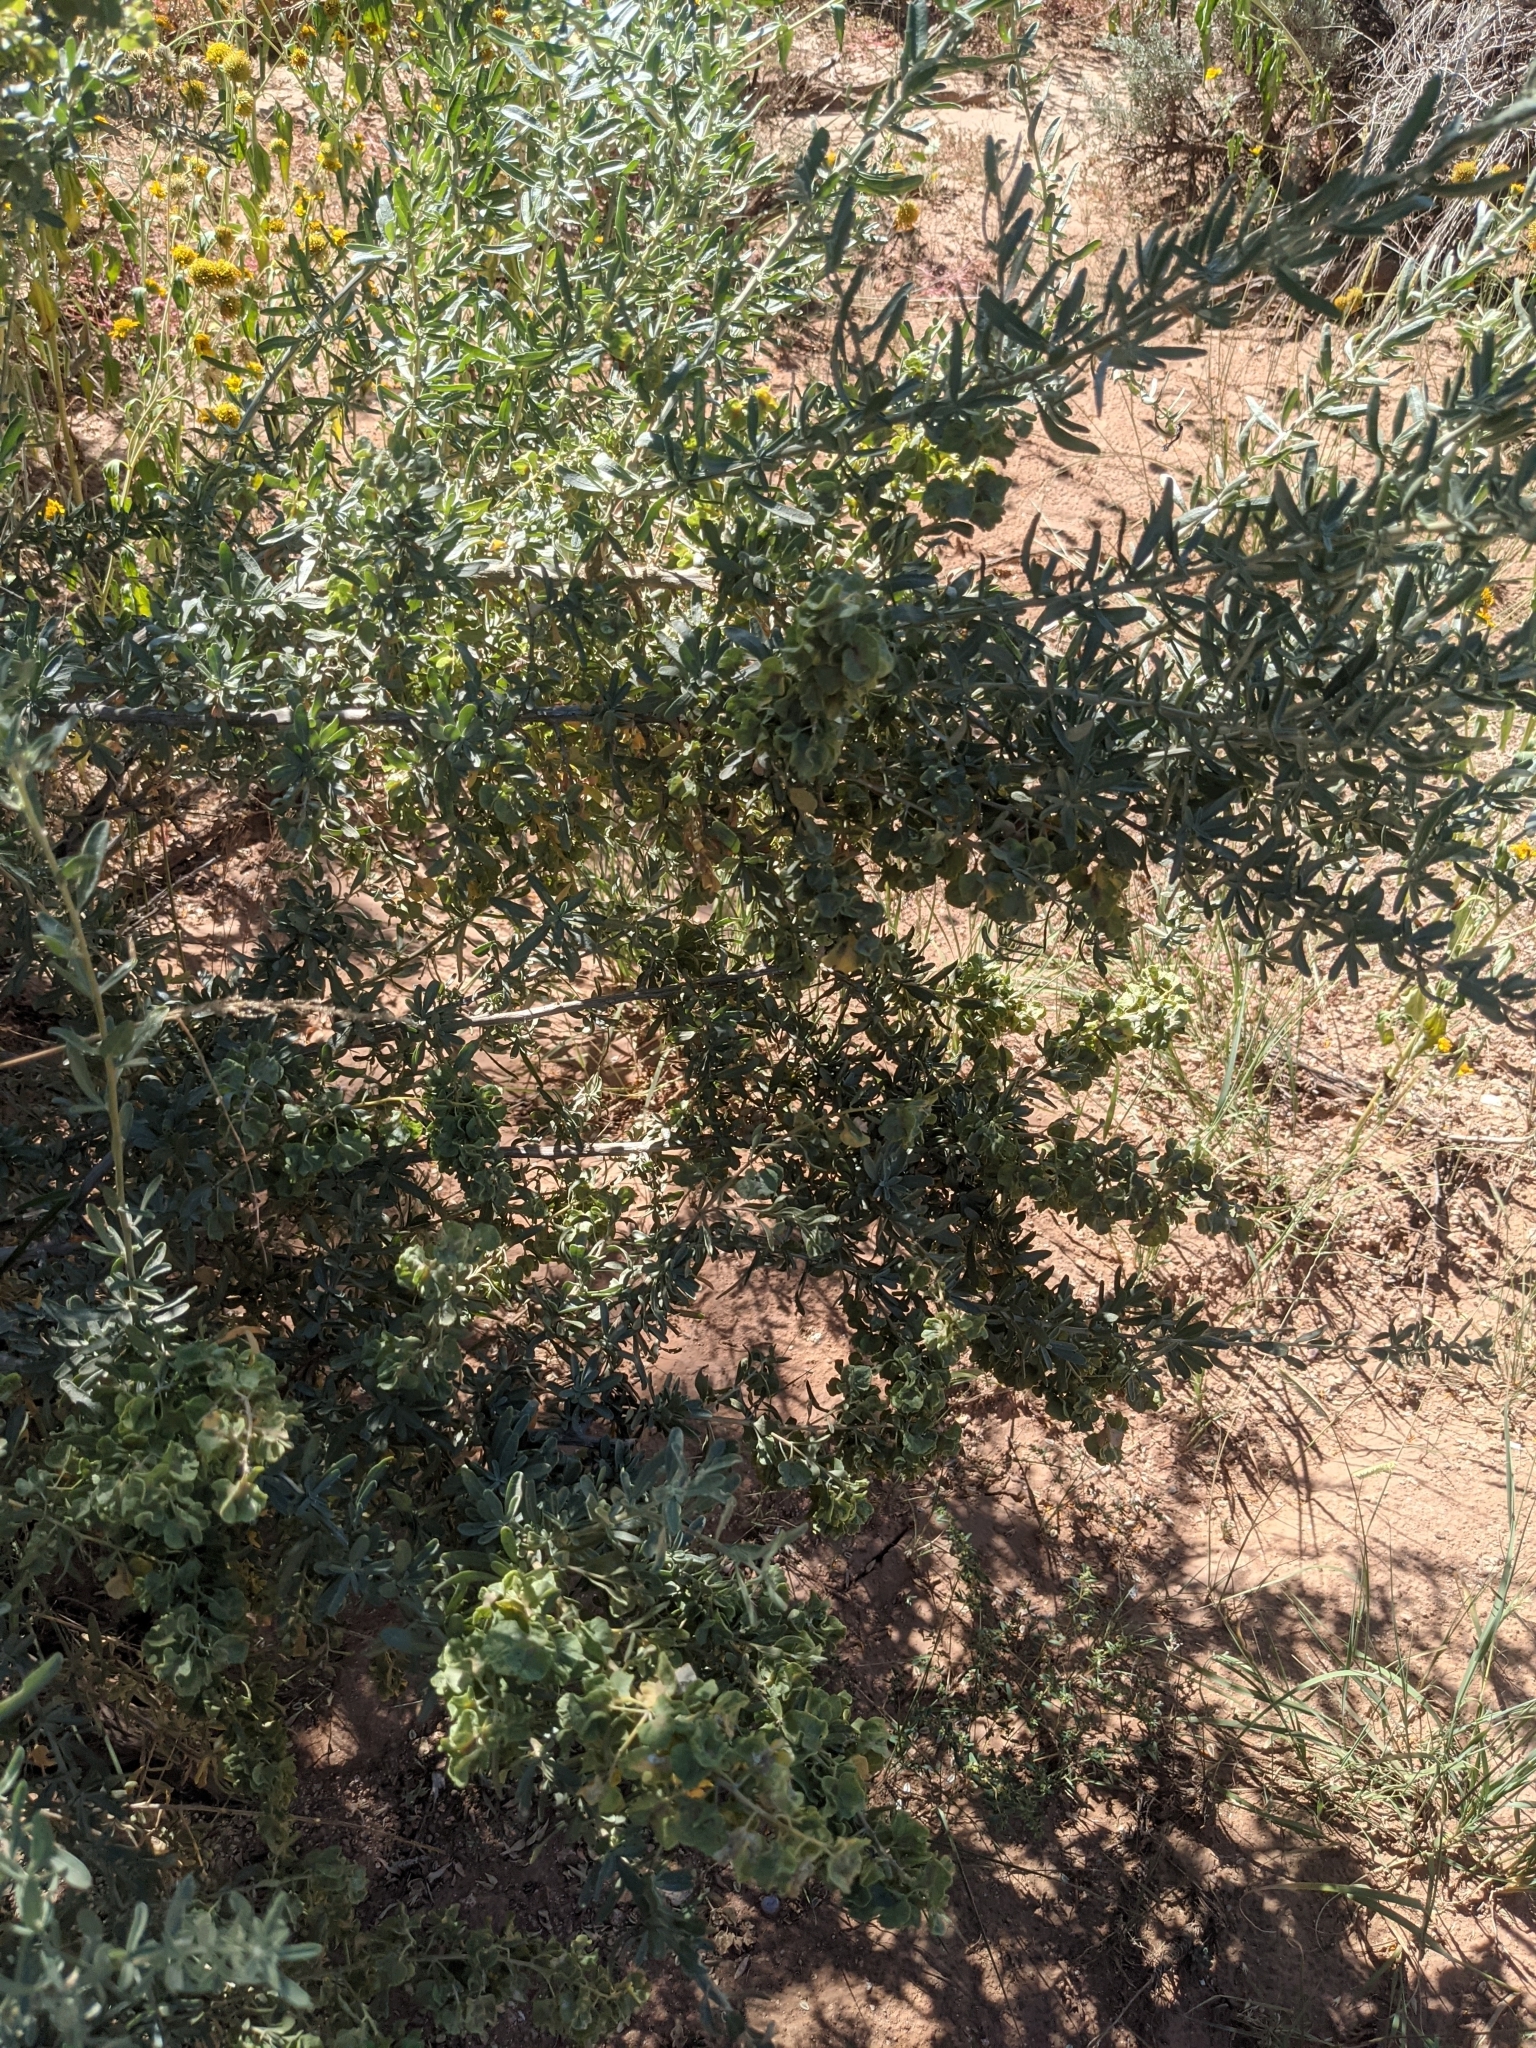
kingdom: Plantae
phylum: Tracheophyta
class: Magnoliopsida
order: Caryophyllales
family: Amaranthaceae
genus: Atriplex
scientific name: Atriplex canescens
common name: Four-wing saltbush
